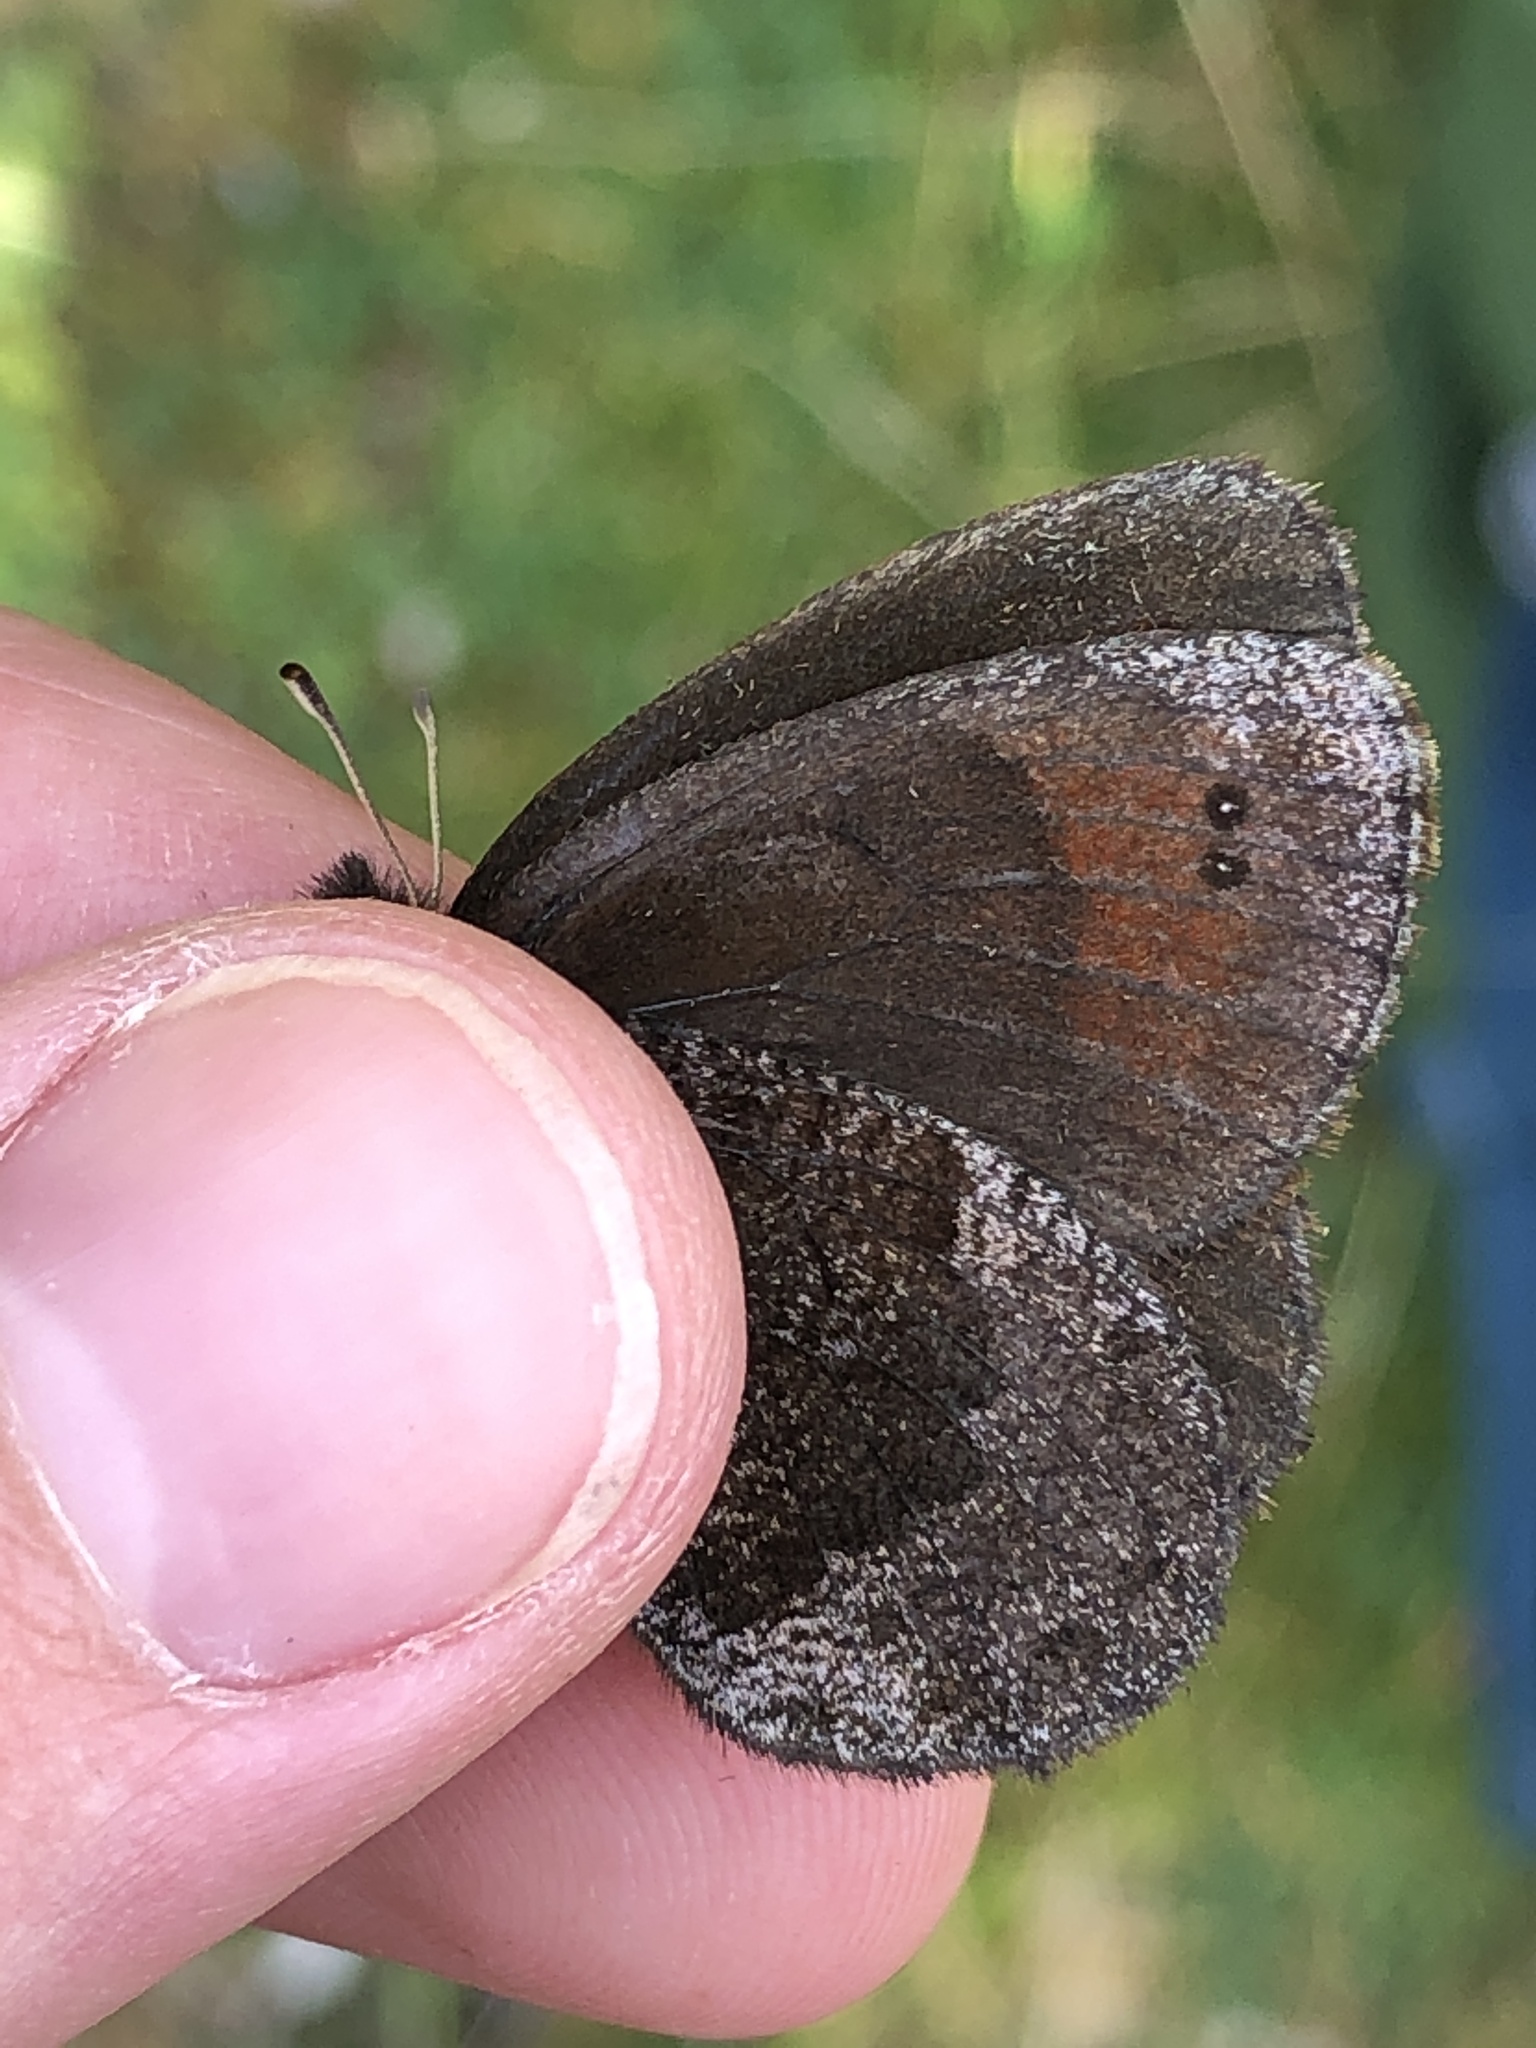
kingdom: Animalia
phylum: Arthropoda
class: Insecta
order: Lepidoptera
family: Nymphalidae
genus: Erebia
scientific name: Erebia pronoe
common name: Water ringlet
